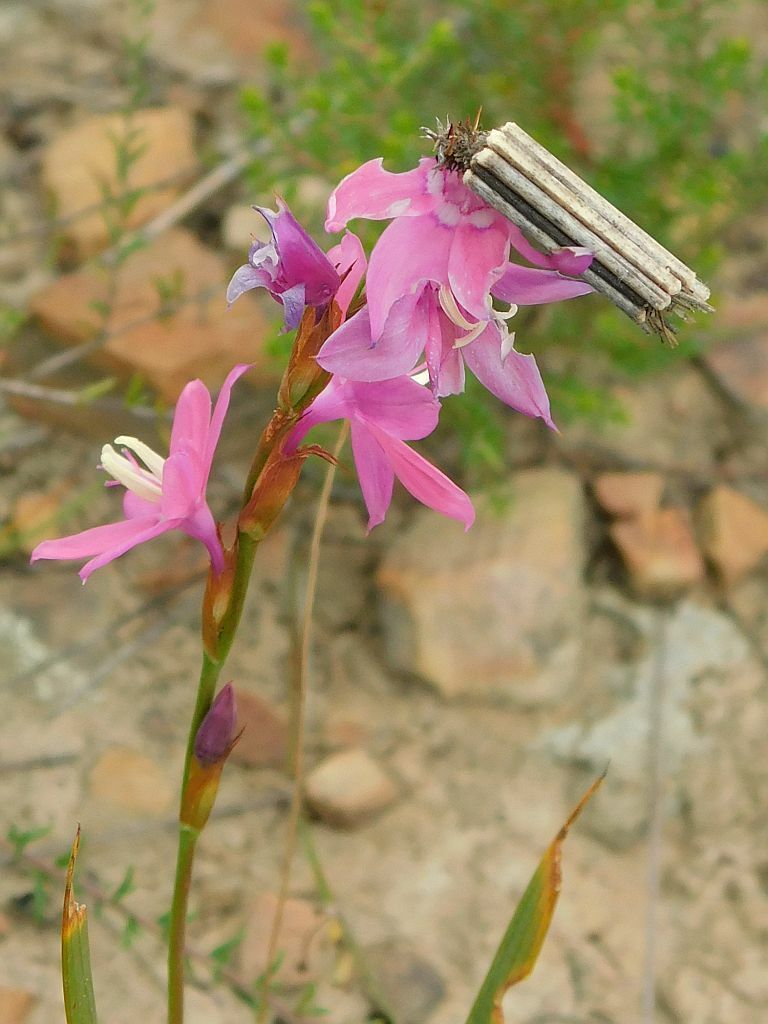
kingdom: Plantae
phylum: Tracheophyta
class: Liliopsida
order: Asparagales
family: Iridaceae
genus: Watsonia
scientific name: Watsonia marginata
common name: Fragrant bugle-lily
